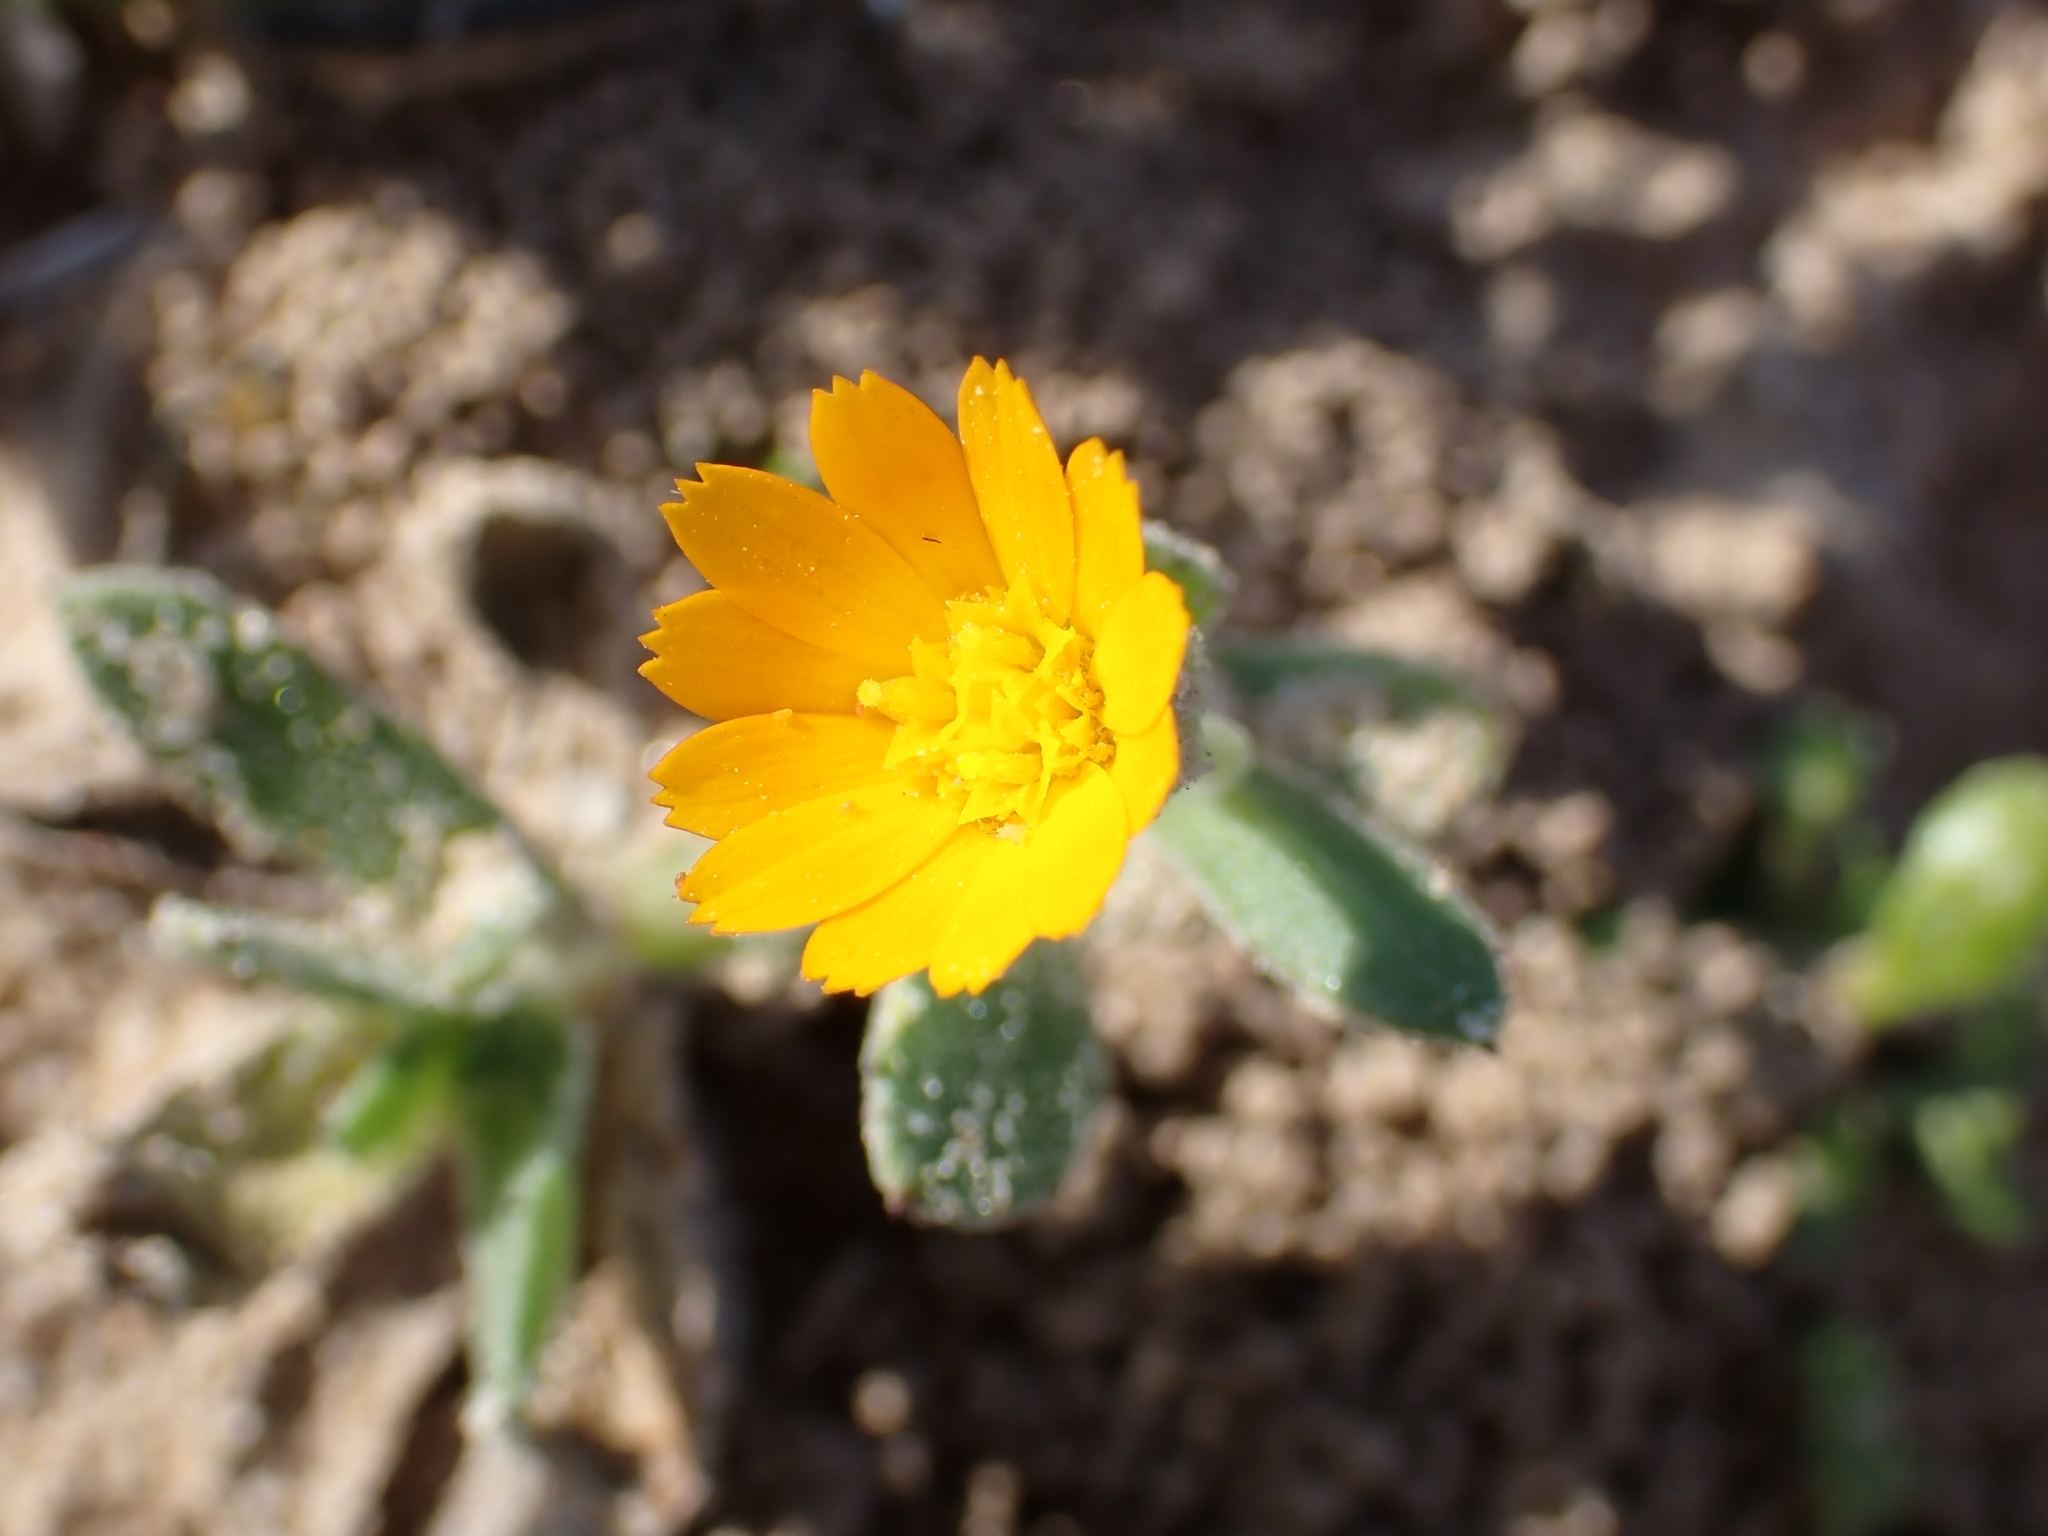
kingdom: Plantae
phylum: Tracheophyta
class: Magnoliopsida
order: Asterales
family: Asteraceae
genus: Calendula
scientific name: Calendula arvensis
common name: Field marigold
